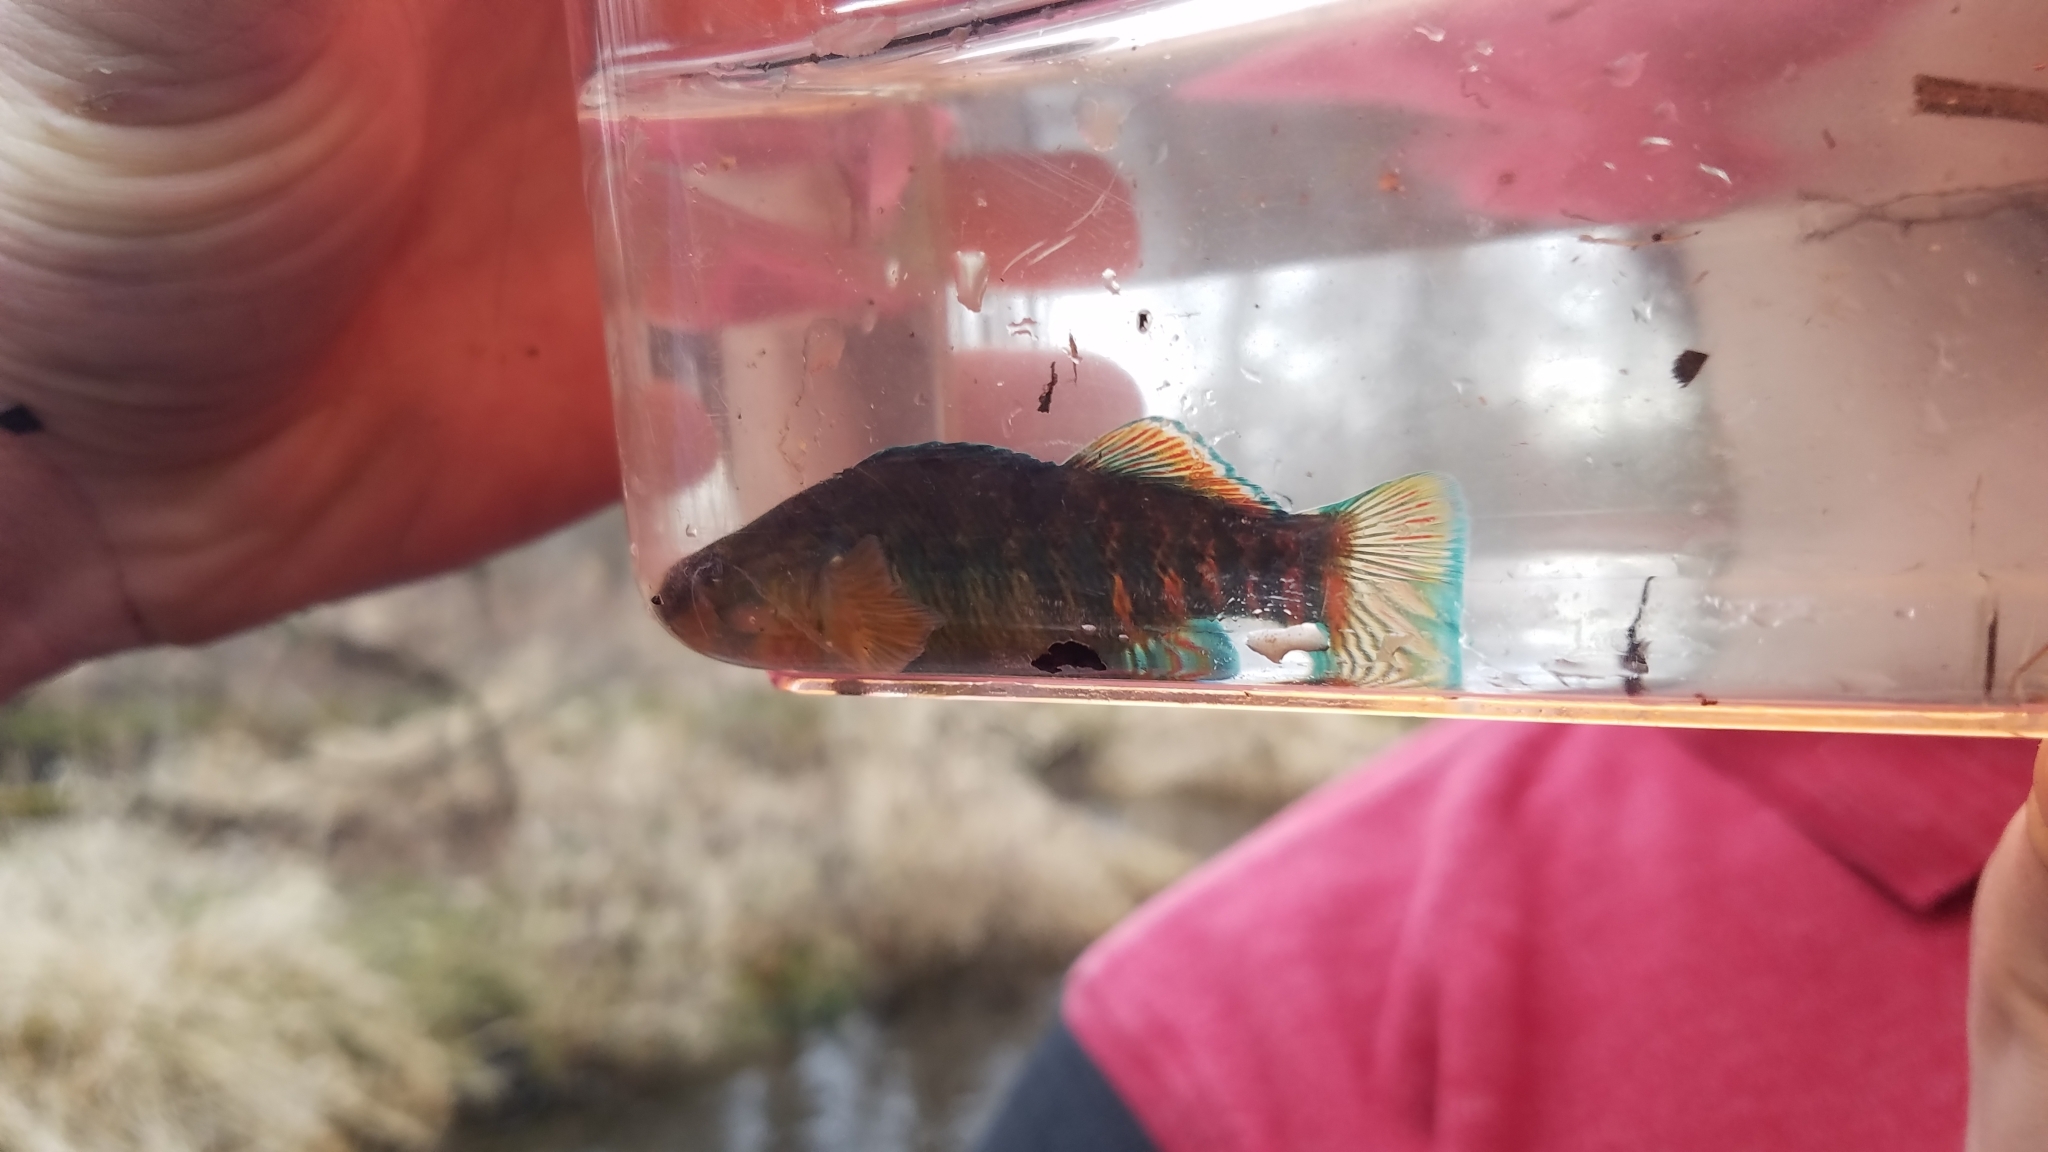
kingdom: Animalia
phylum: Chordata
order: Perciformes
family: Percidae
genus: Etheostoma
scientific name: Etheostoma caeruleum
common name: Rainbow darter
